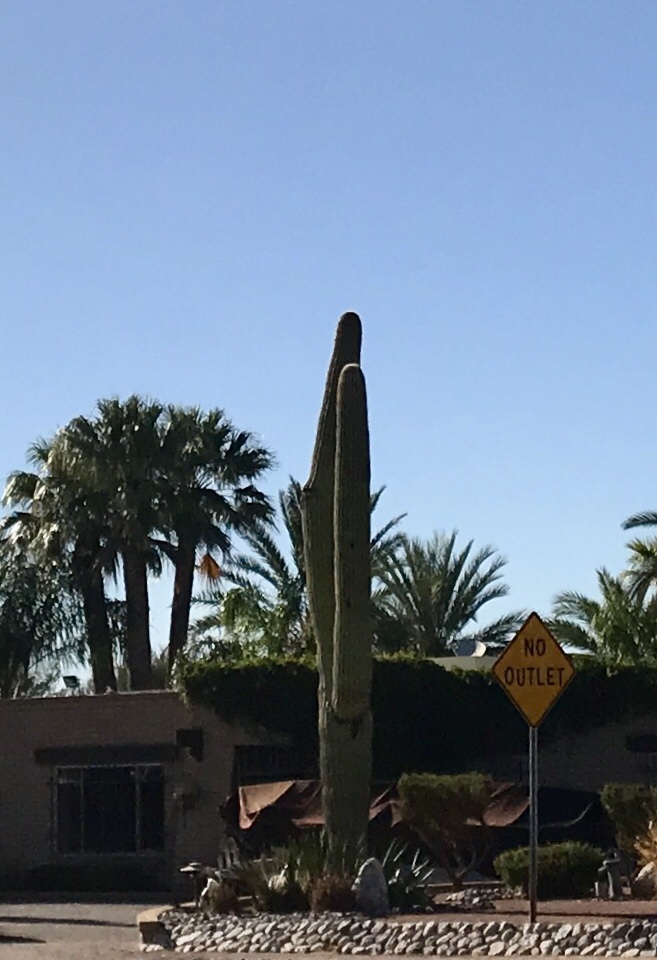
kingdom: Plantae
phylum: Tracheophyta
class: Magnoliopsida
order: Caryophyllales
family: Cactaceae
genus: Carnegiea
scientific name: Carnegiea gigantea
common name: Saguaro
